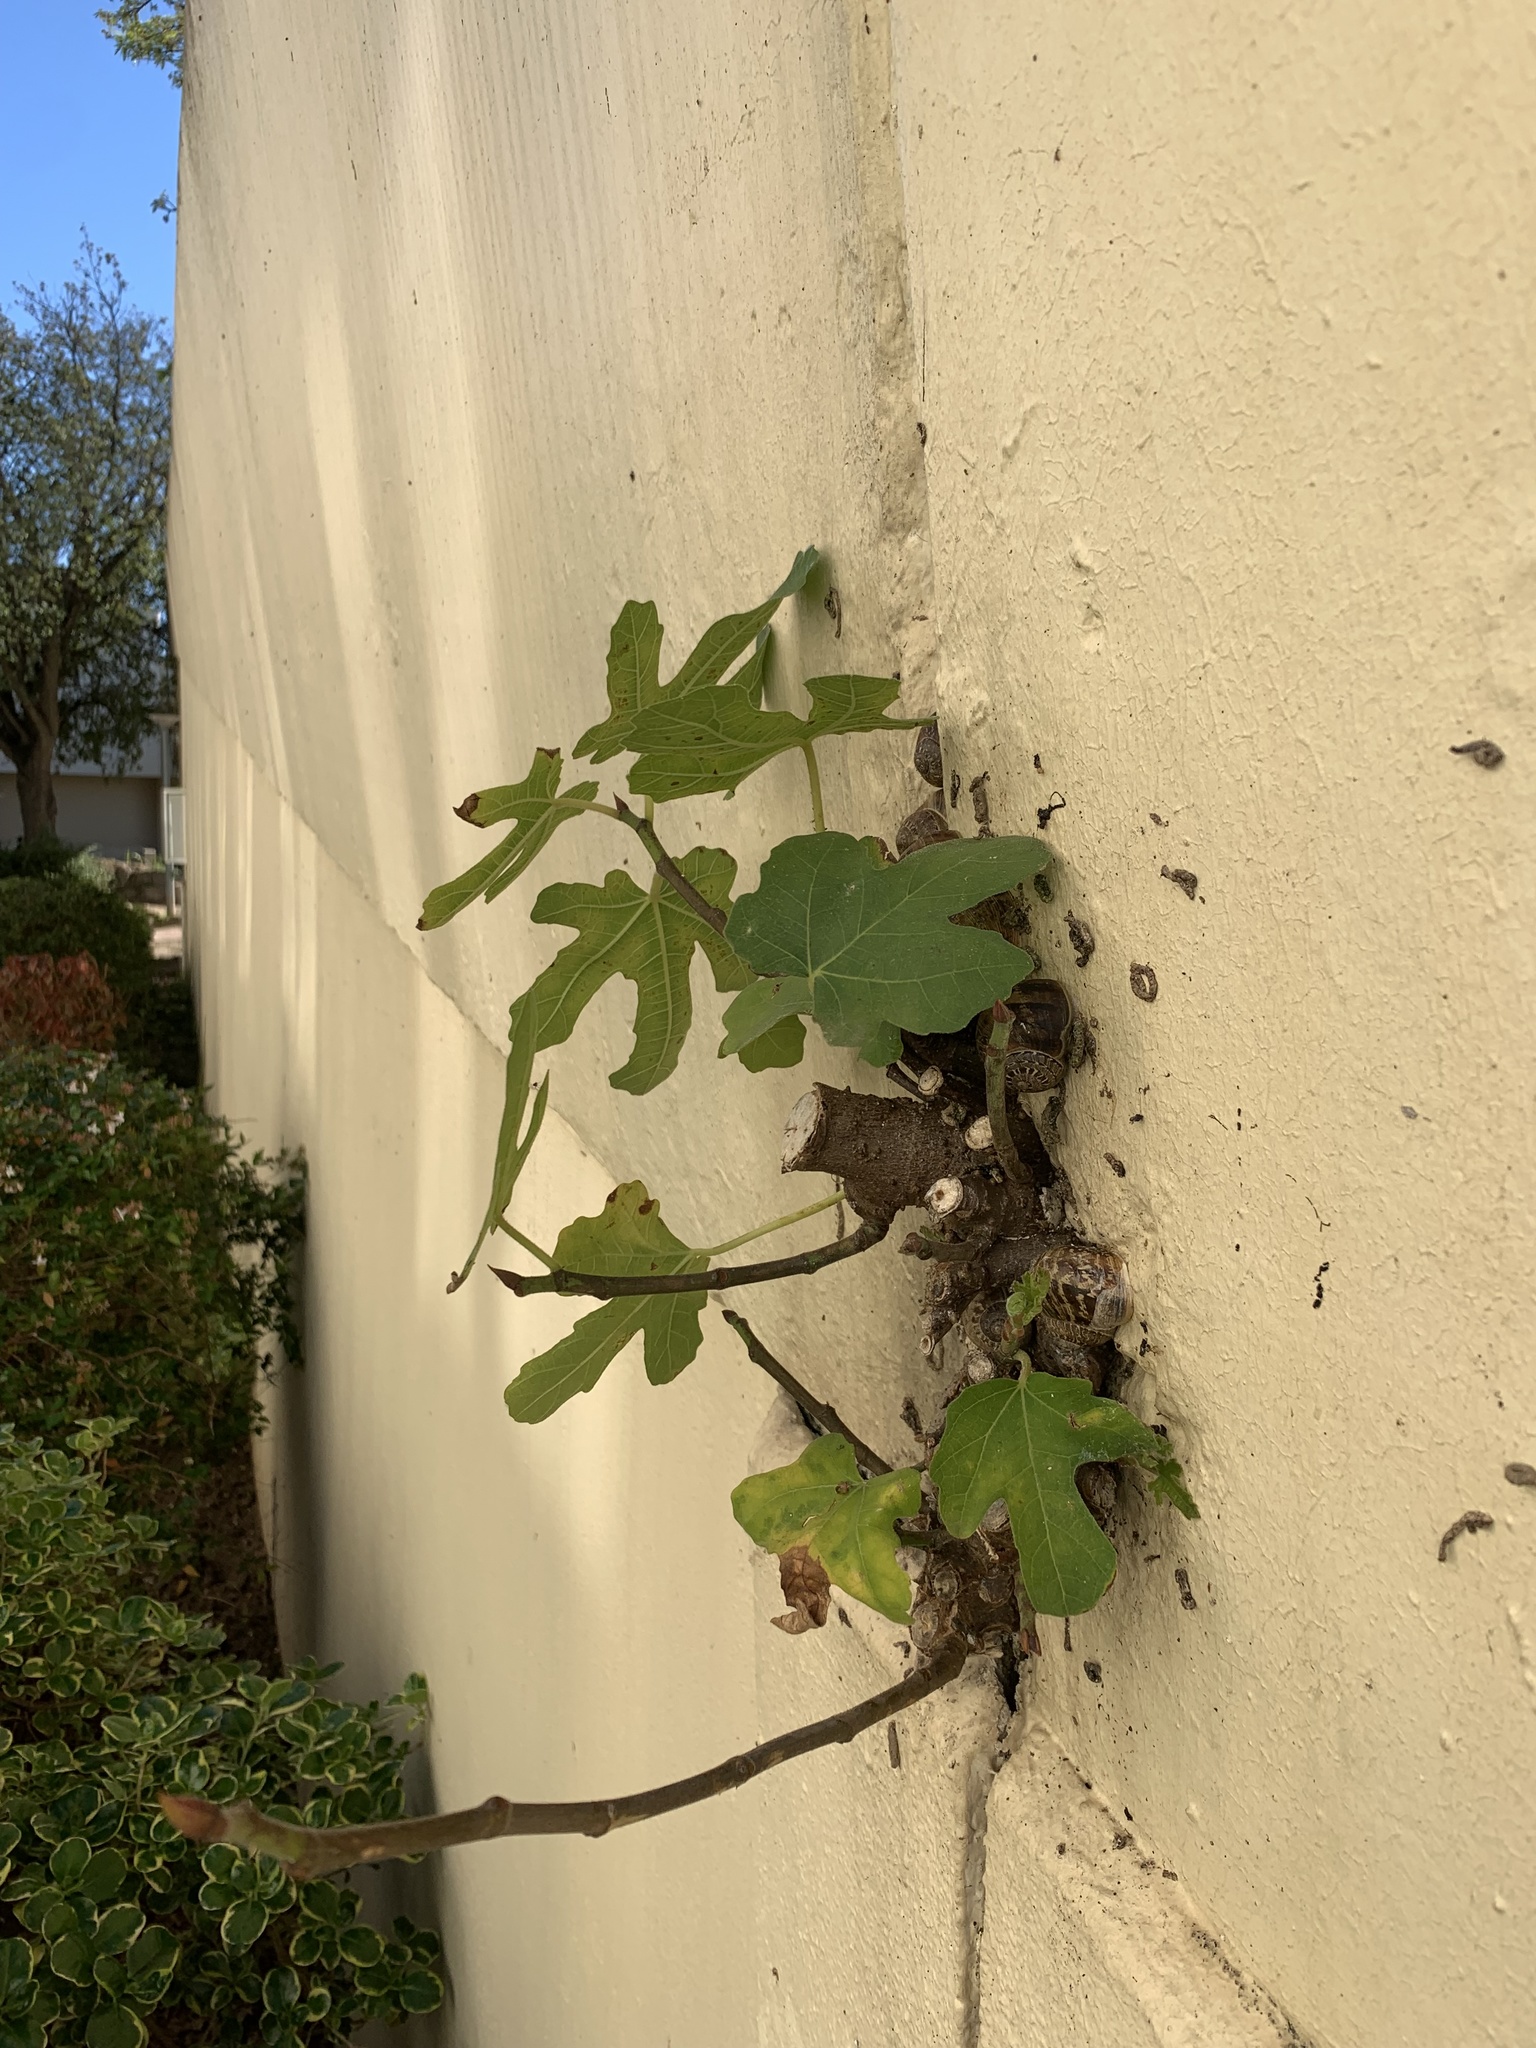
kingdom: Plantae
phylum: Tracheophyta
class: Magnoliopsida
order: Rosales
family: Moraceae
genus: Ficus
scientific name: Ficus carica
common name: Fig
